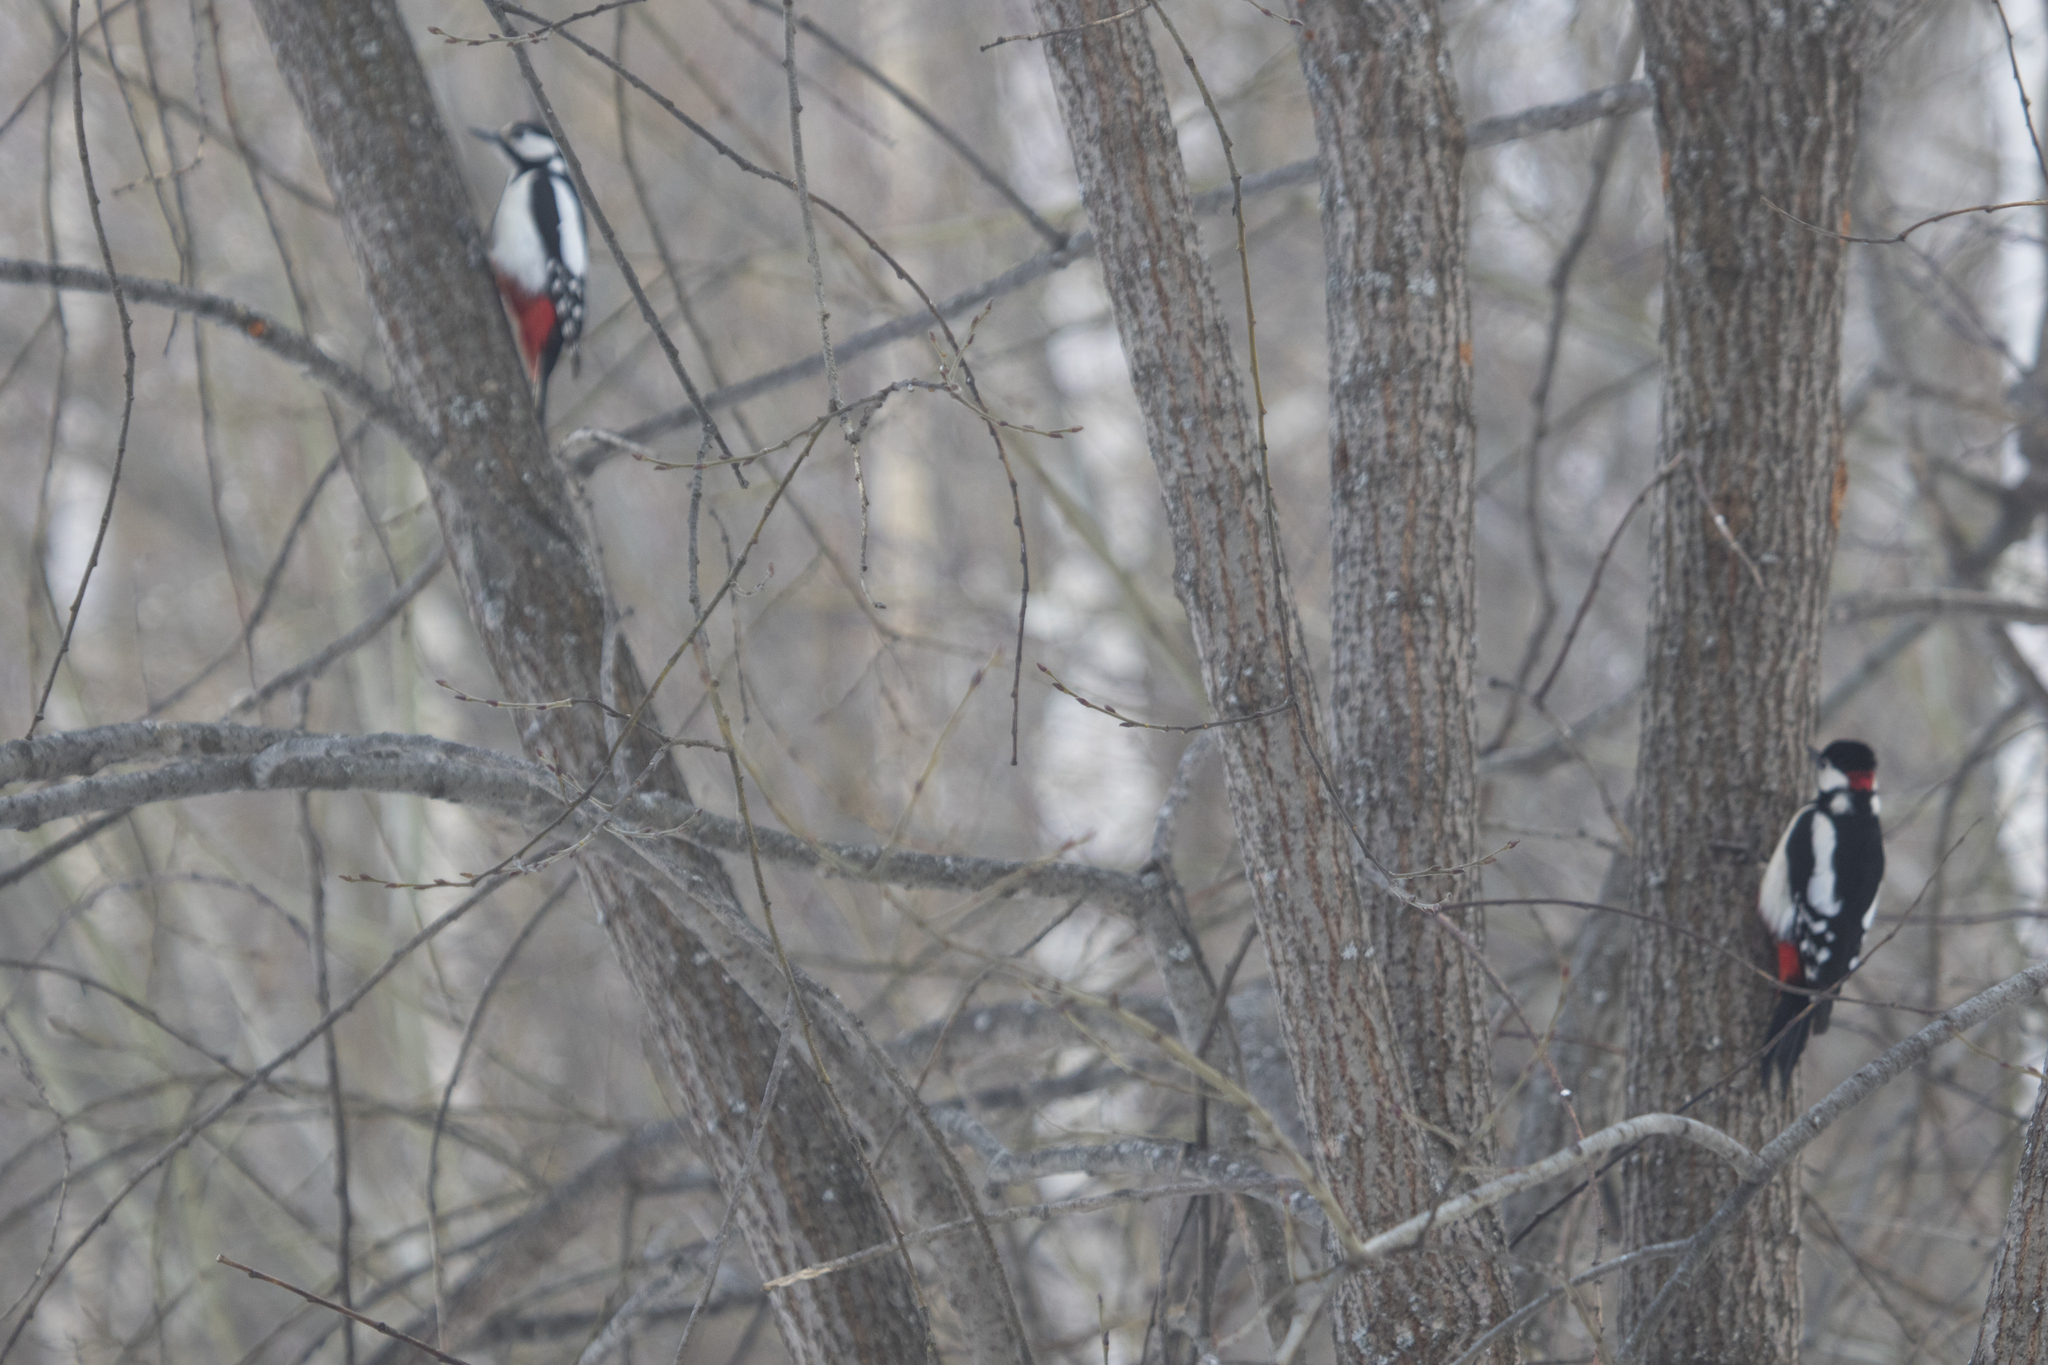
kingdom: Animalia
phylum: Chordata
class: Aves
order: Piciformes
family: Picidae
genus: Dendrocopos
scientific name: Dendrocopos major
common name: Great spotted woodpecker
